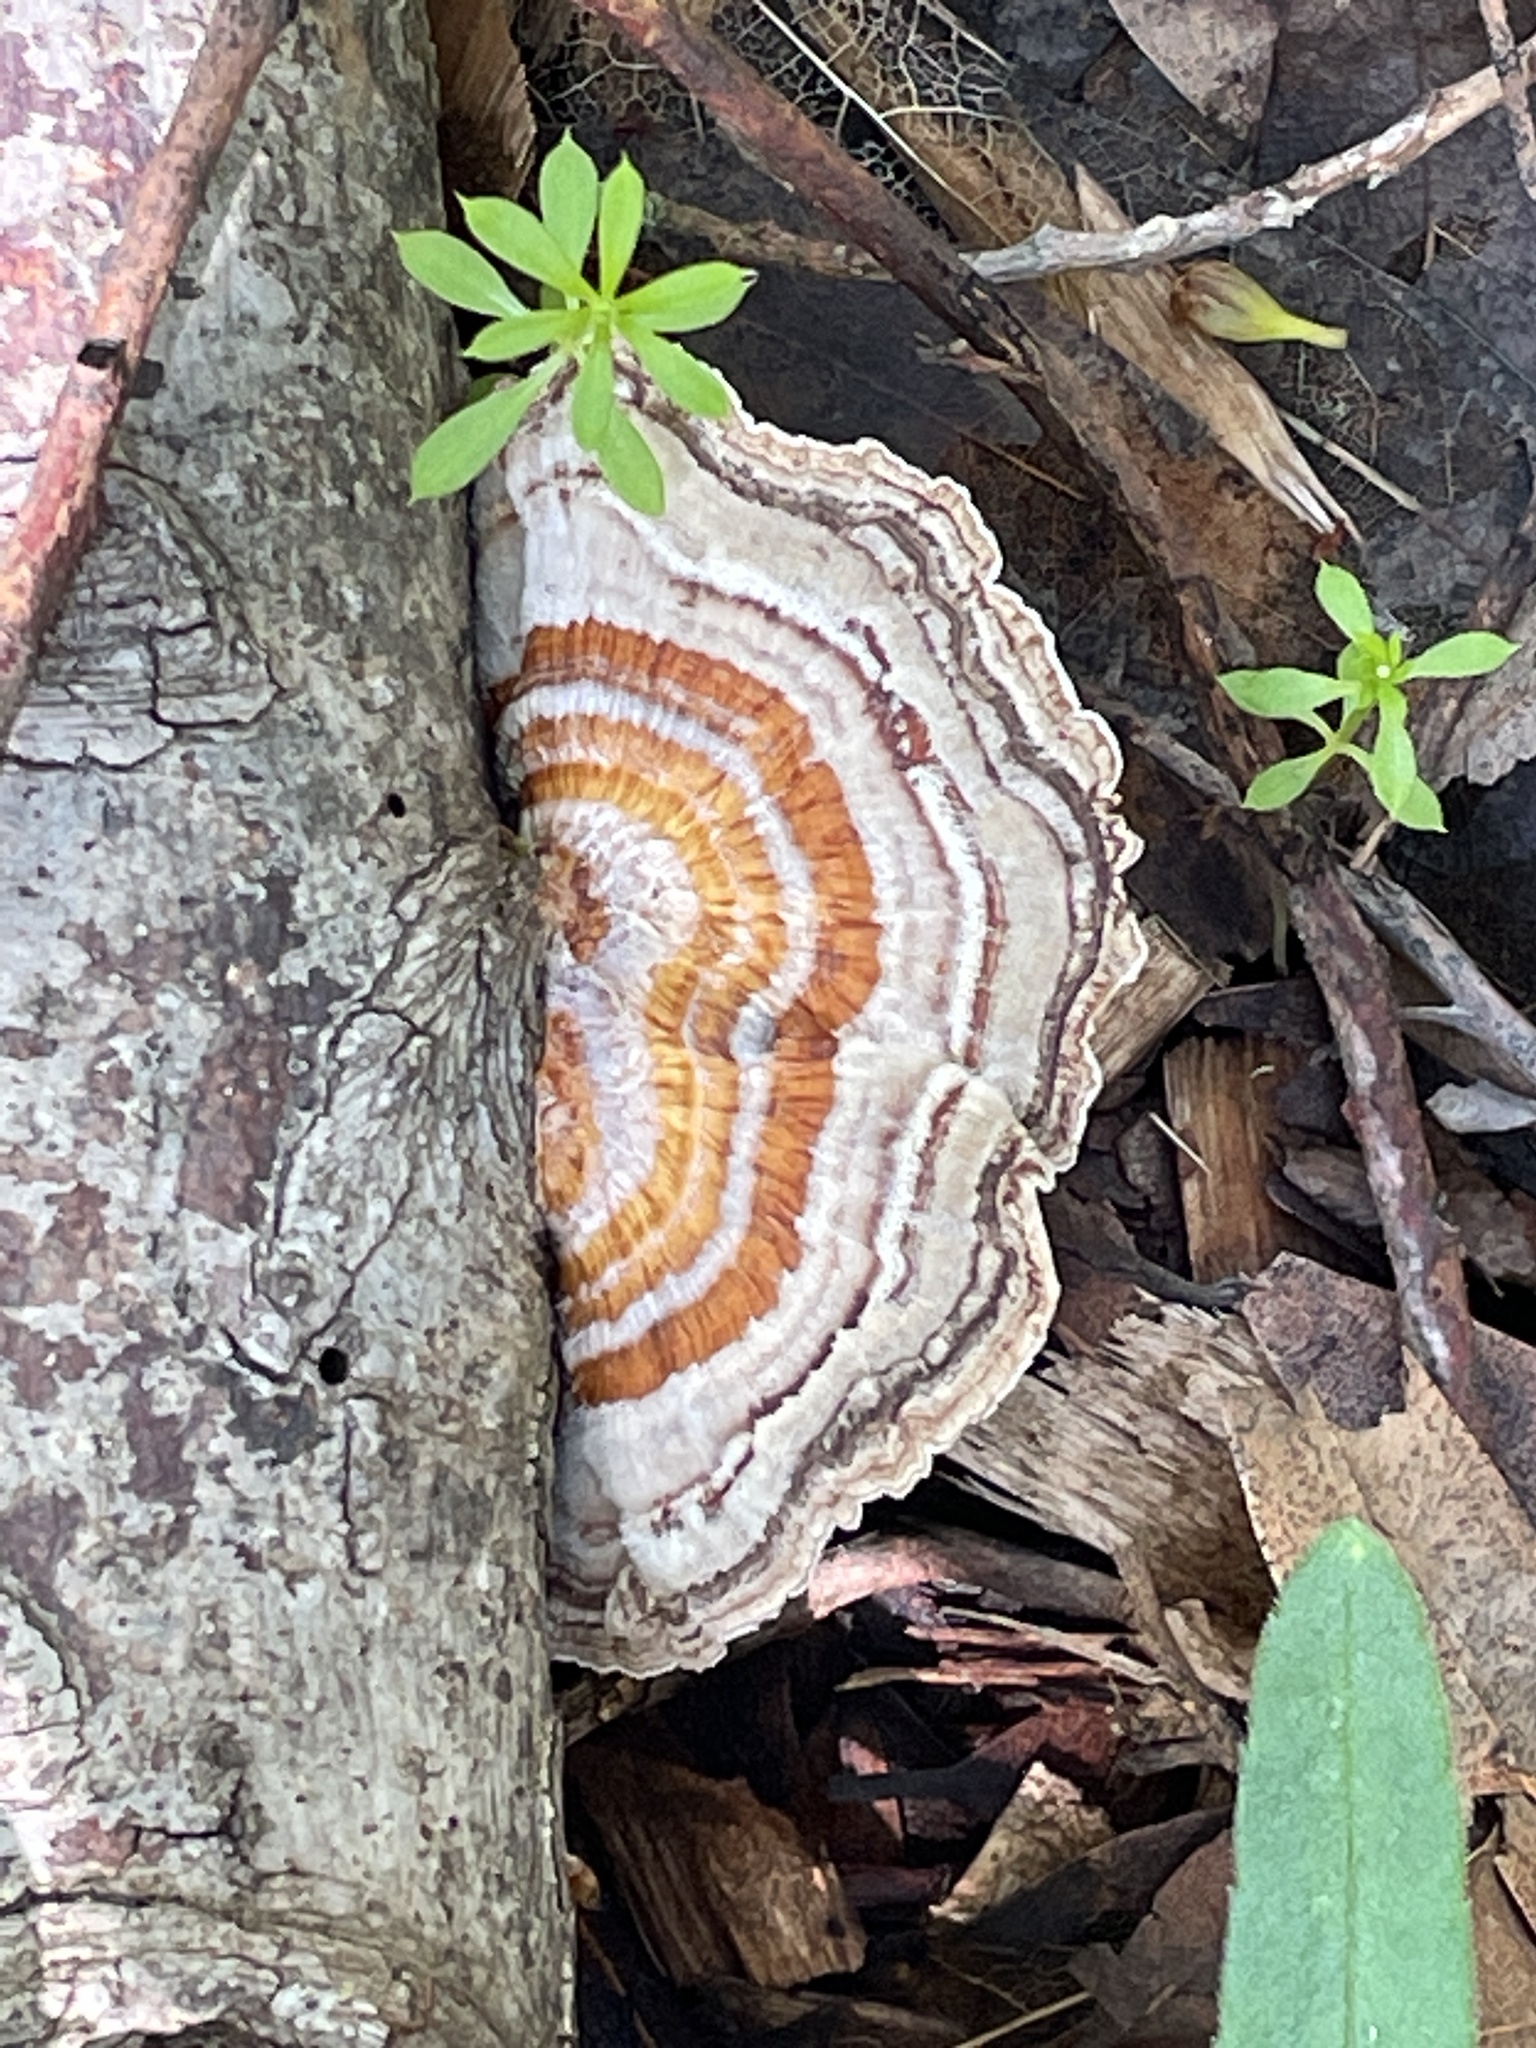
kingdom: Fungi
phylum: Basidiomycota
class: Agaricomycetes
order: Polyporales
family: Polyporaceae
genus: Trametes
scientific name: Trametes versicolor
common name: Turkeytail
